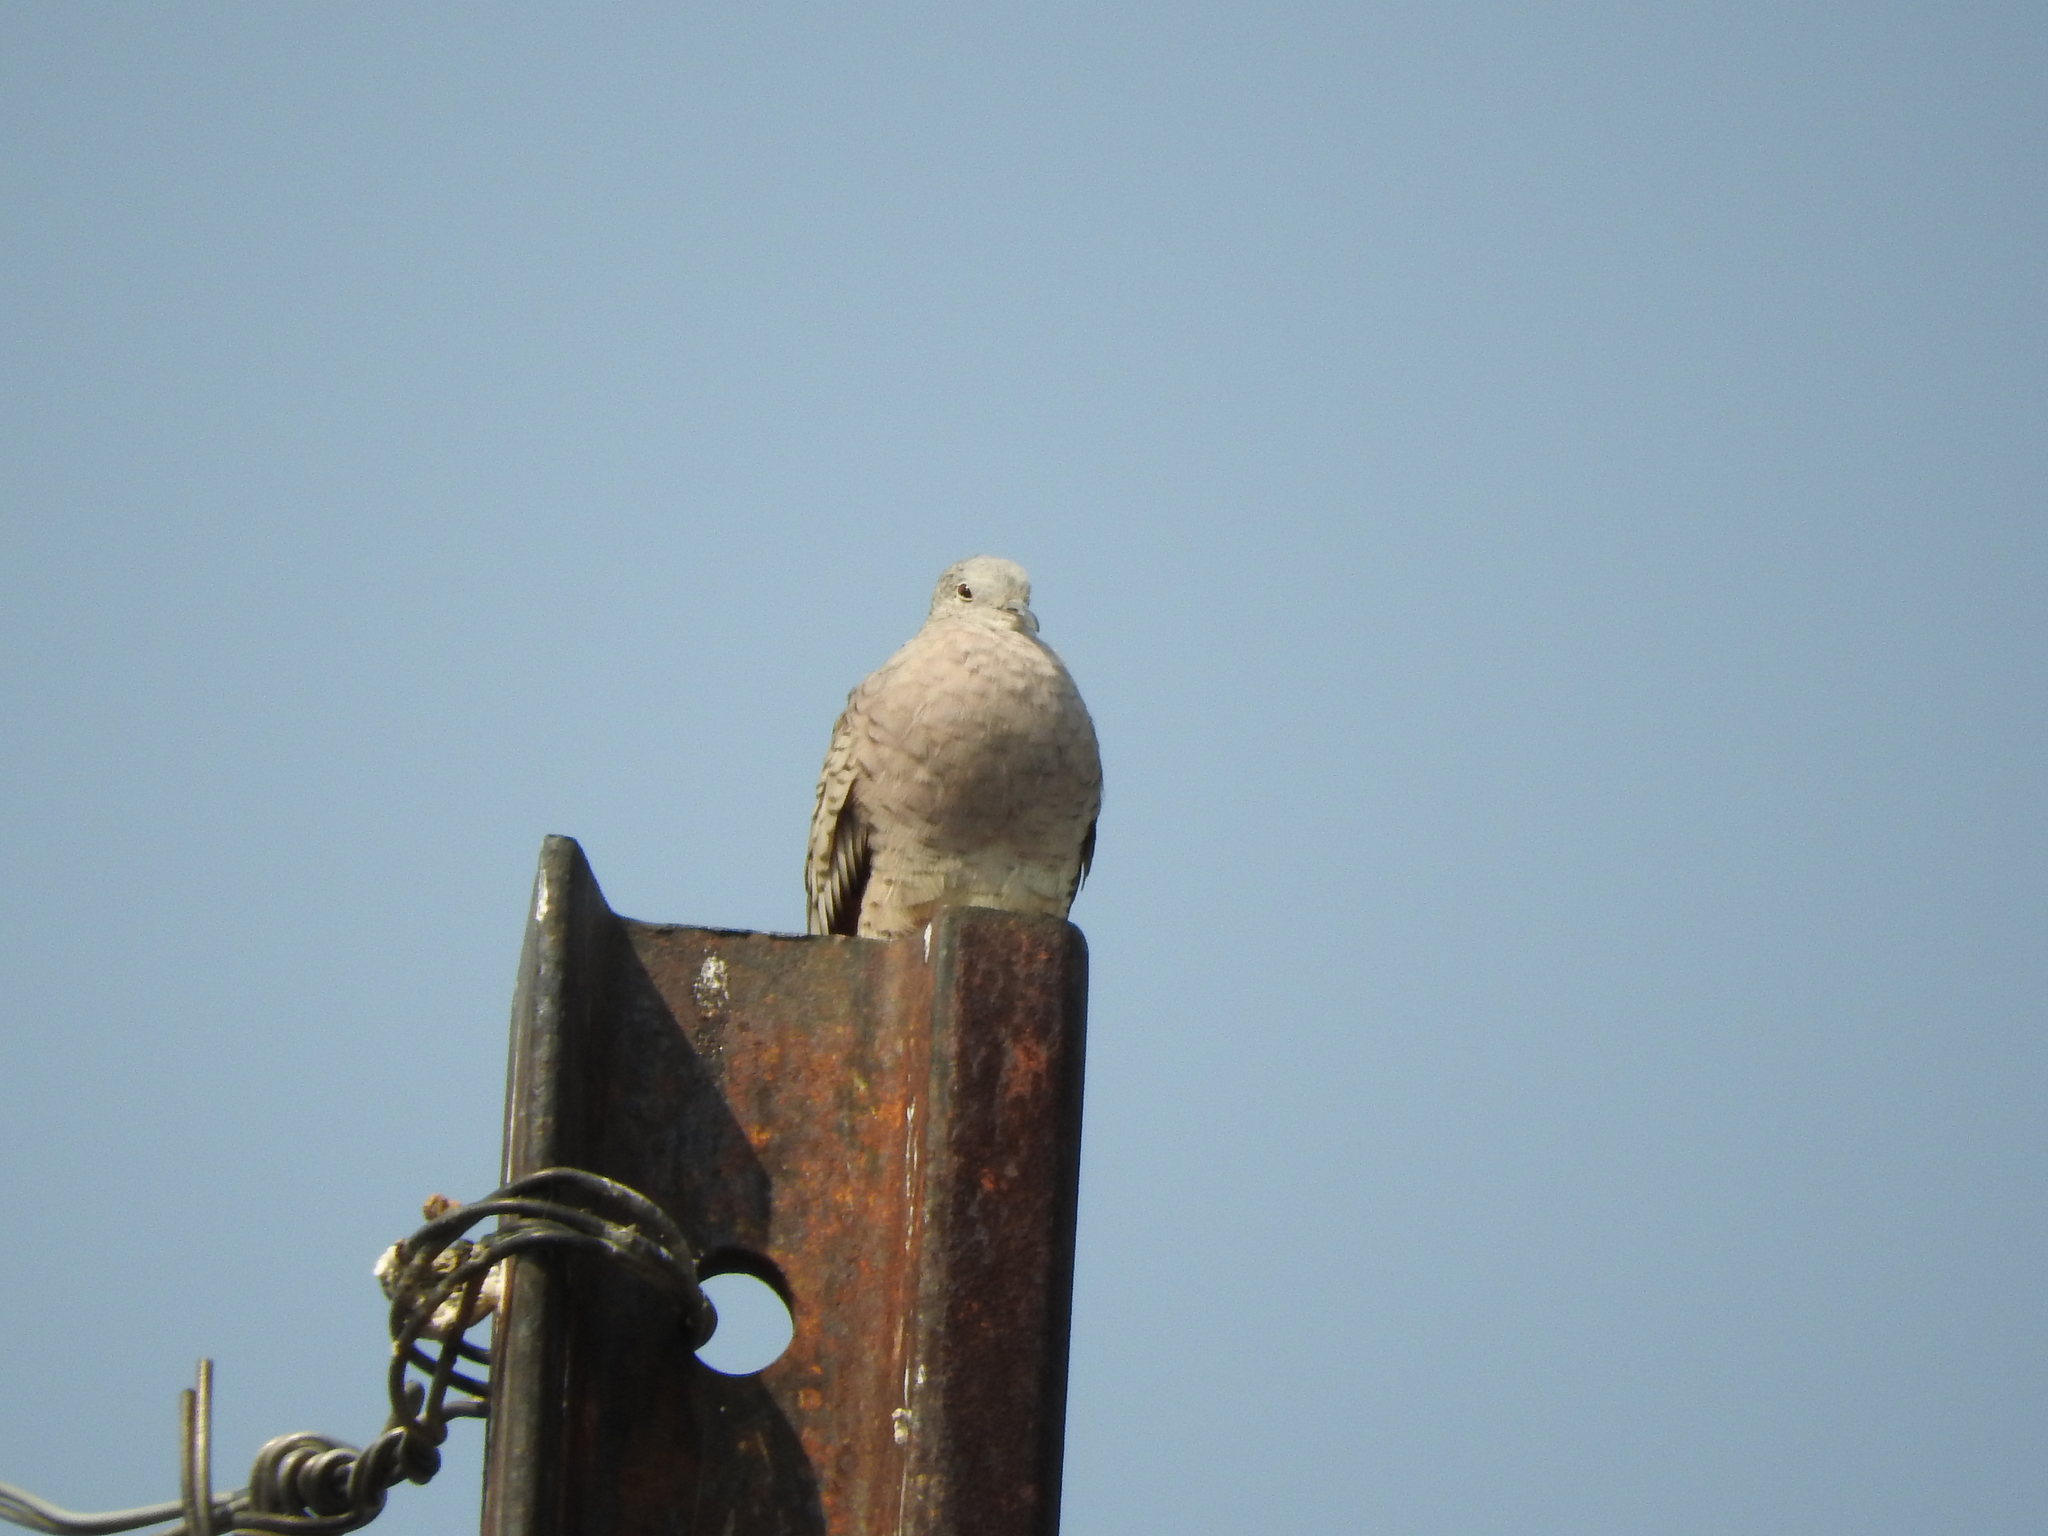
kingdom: Animalia
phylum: Chordata
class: Aves
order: Columbiformes
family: Columbidae
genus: Streptopelia
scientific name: Streptopelia decaocto
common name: Eurasian collared dove
